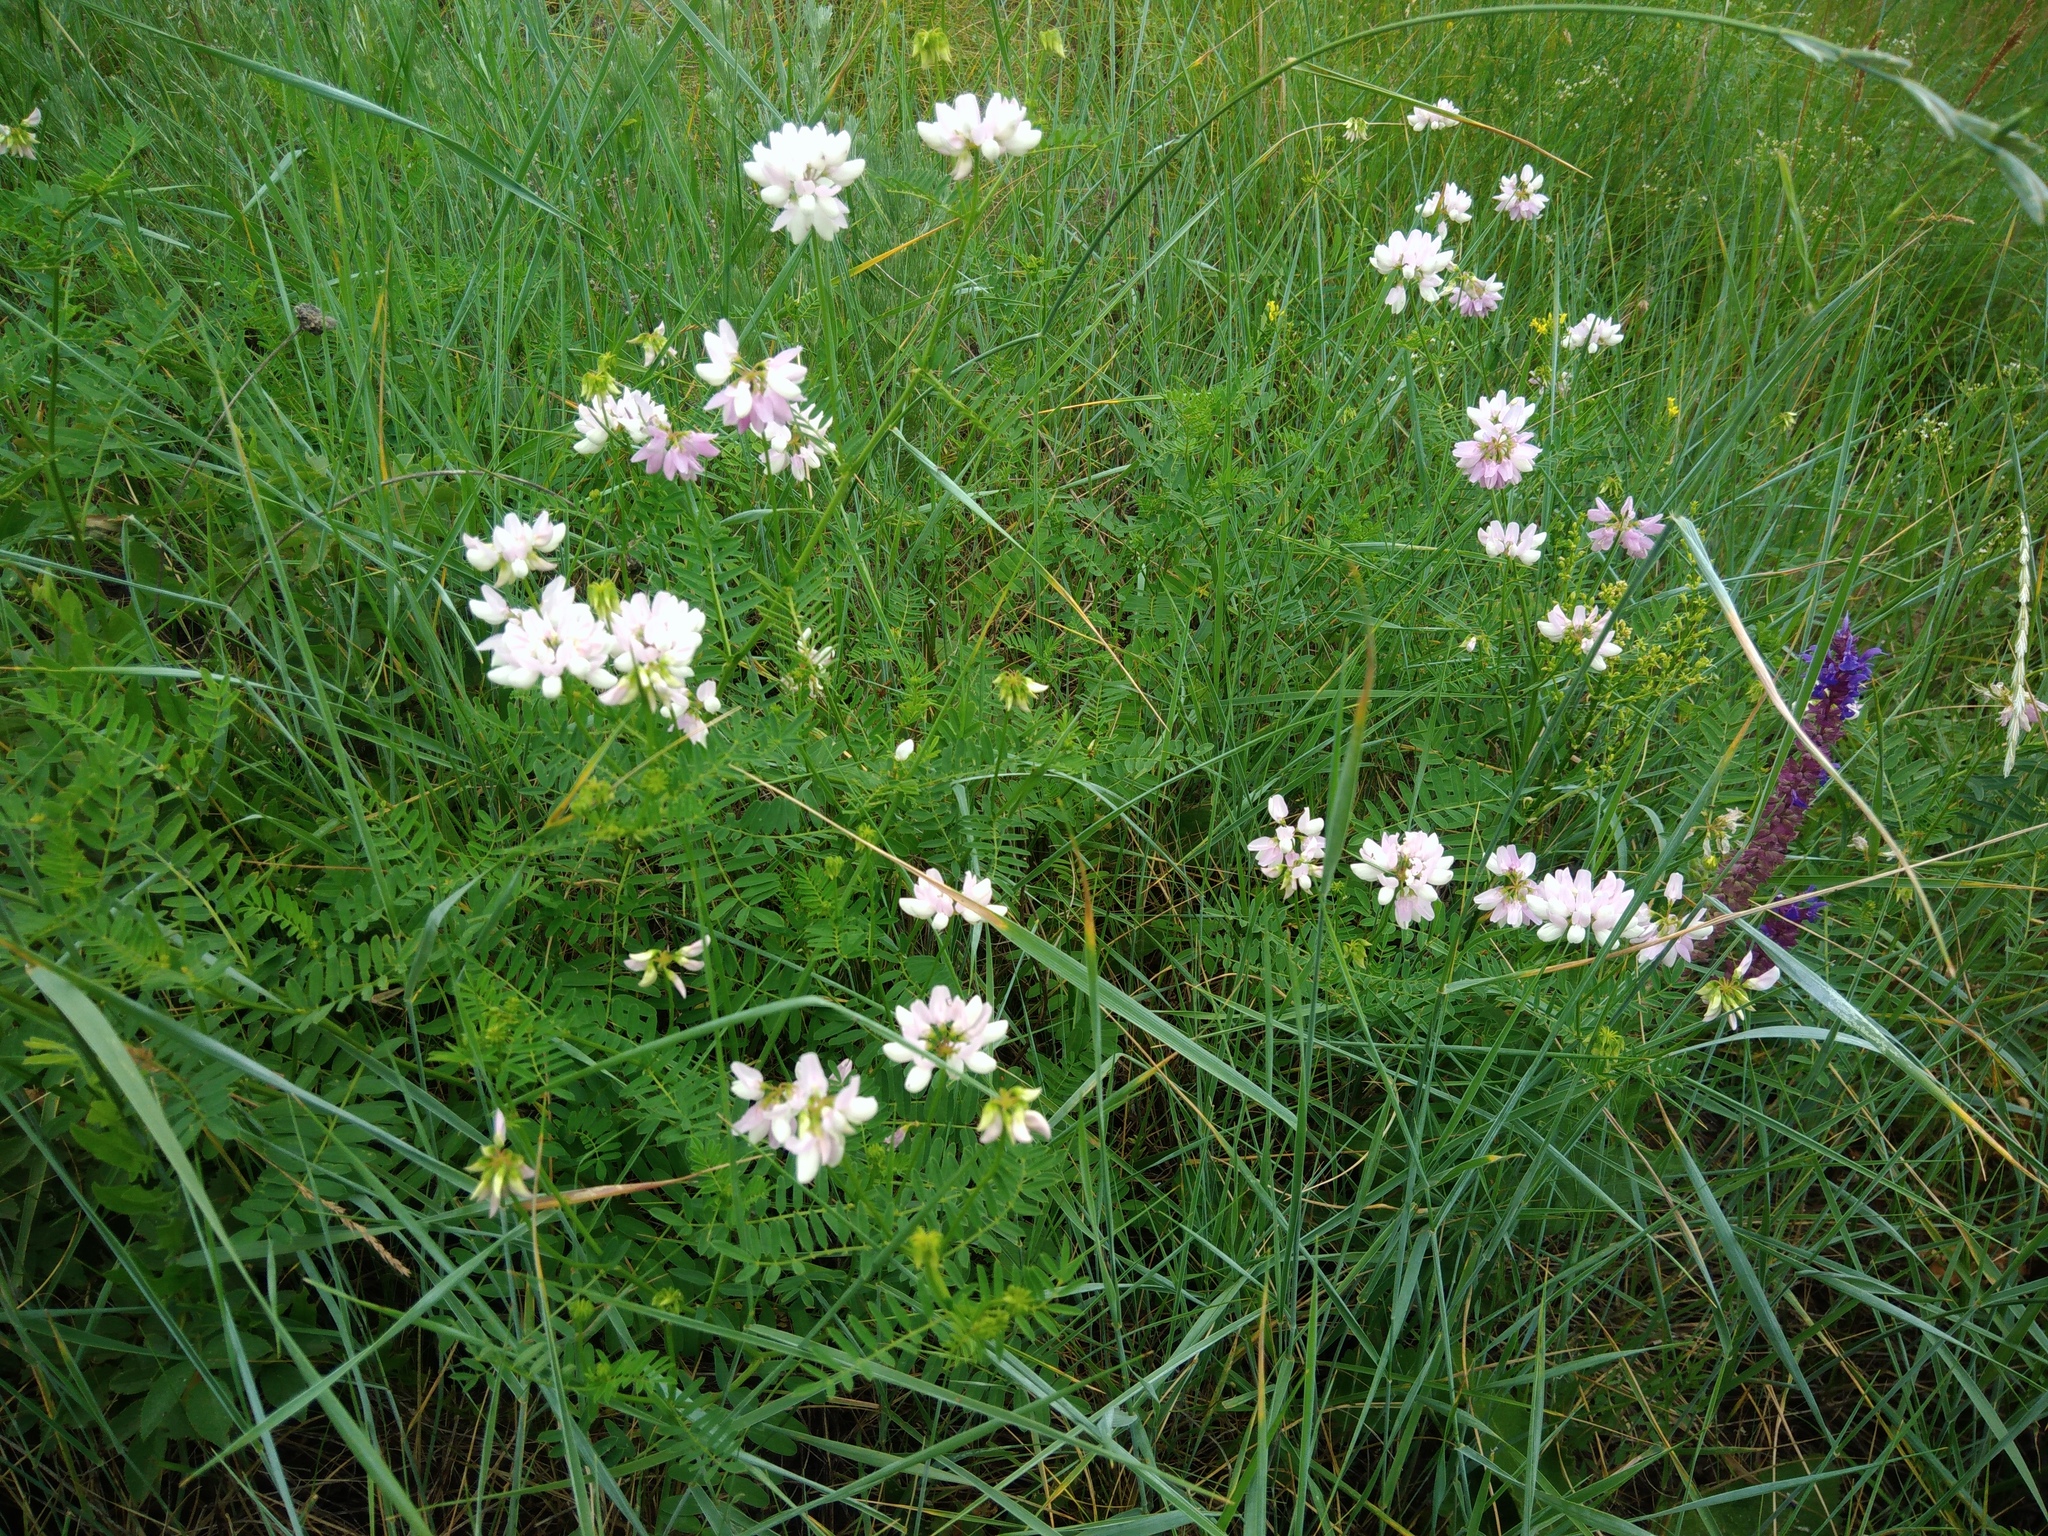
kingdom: Plantae
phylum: Tracheophyta
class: Magnoliopsida
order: Fabales
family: Fabaceae
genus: Coronilla
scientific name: Coronilla varia
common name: Crownvetch
